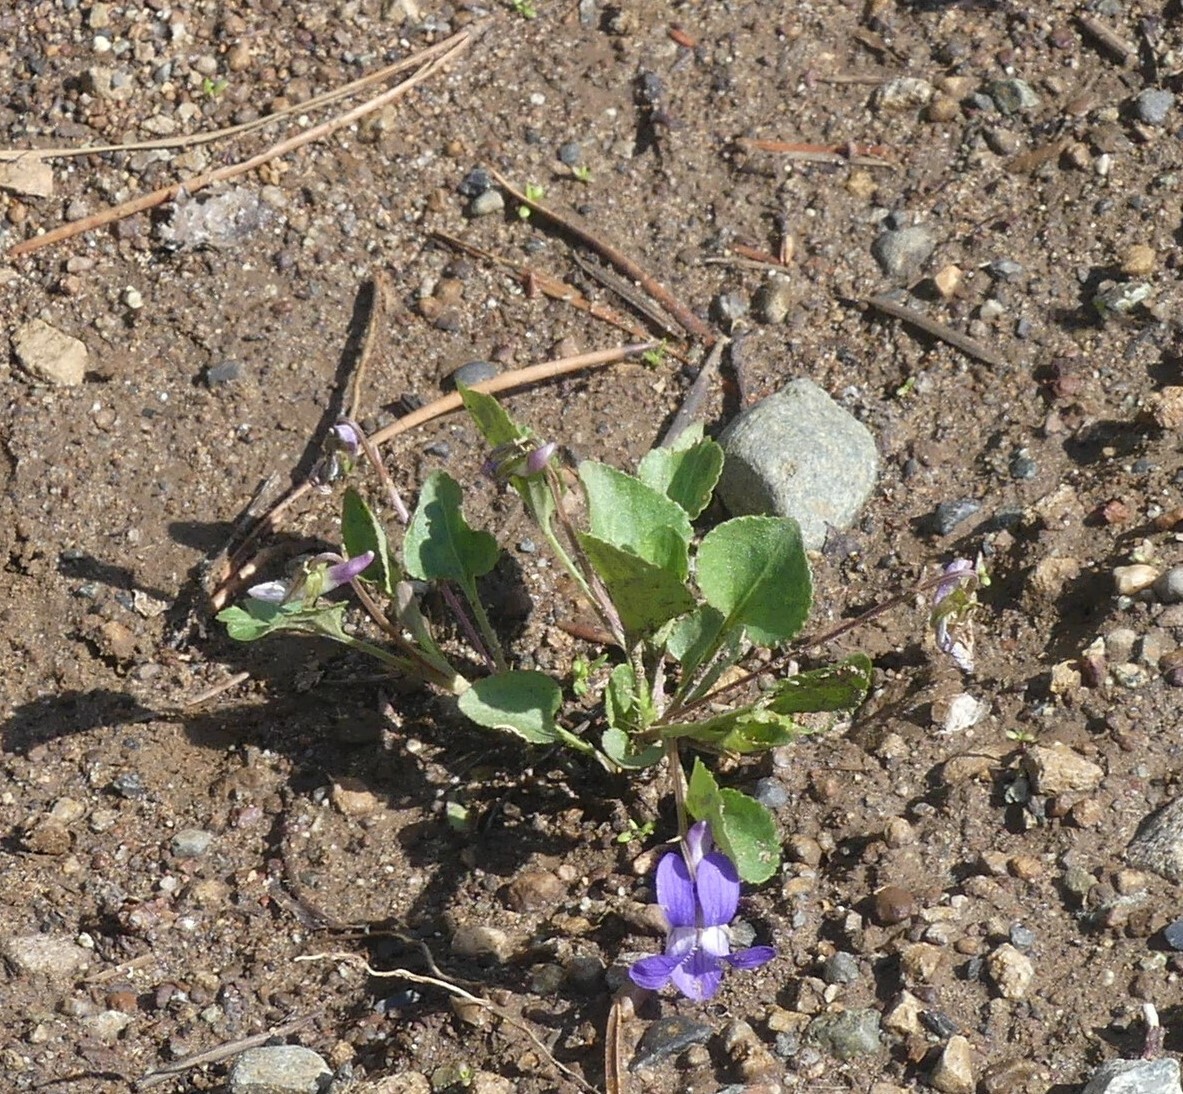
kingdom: Plantae
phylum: Tracheophyta
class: Magnoliopsida
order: Malpighiales
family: Violaceae
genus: Viola
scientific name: Viola adunca
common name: Sand violet
